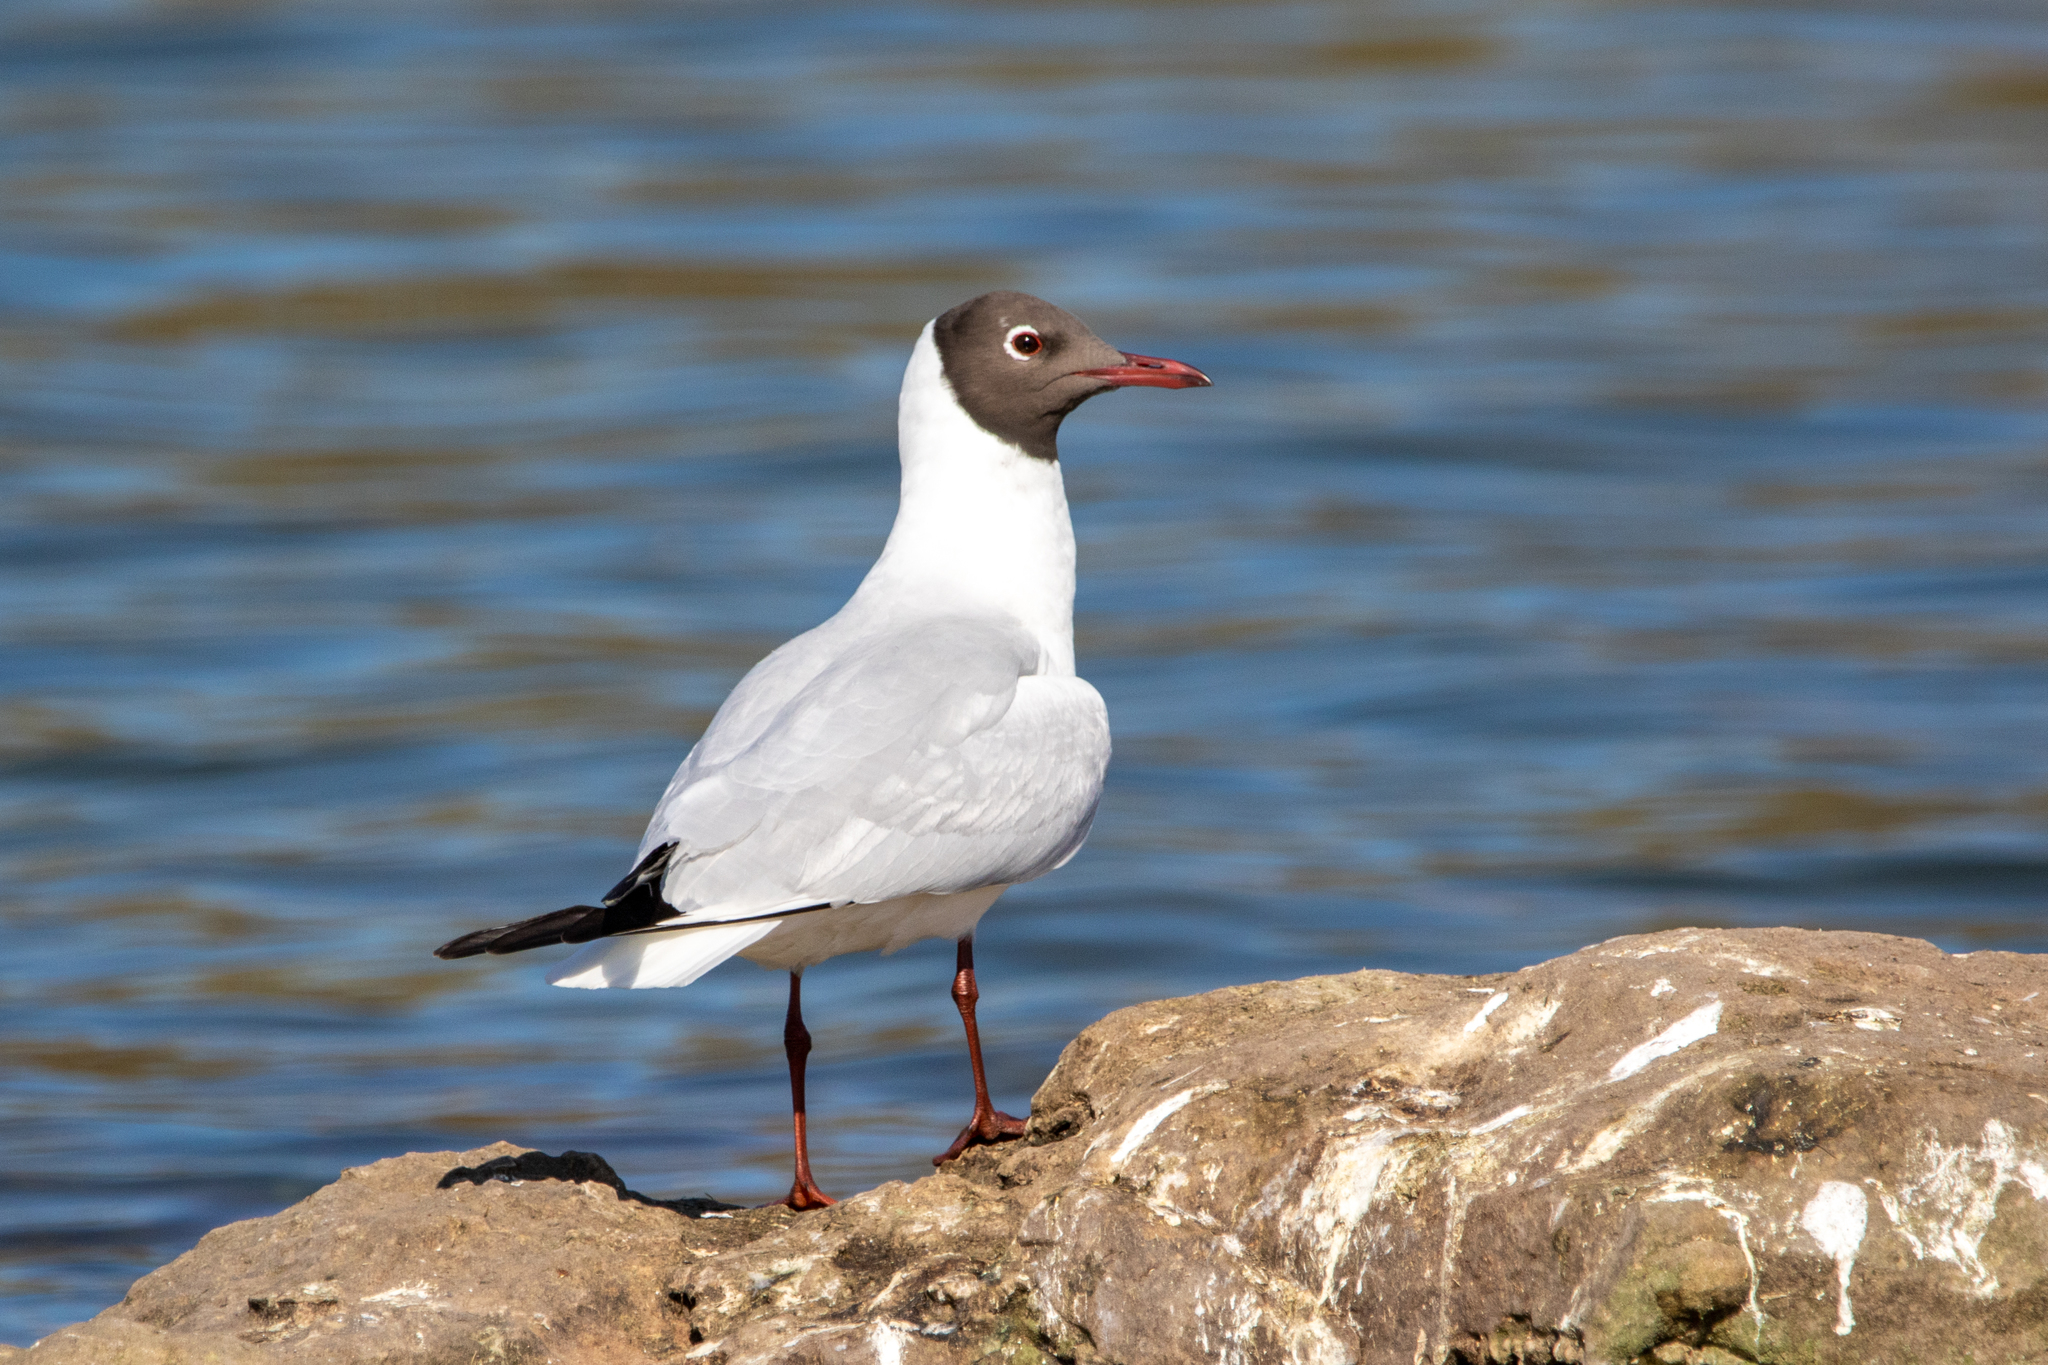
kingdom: Animalia
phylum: Chordata
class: Aves
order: Charadriiformes
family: Laridae
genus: Chroicocephalus
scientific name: Chroicocephalus ridibundus
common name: Black-headed gull
